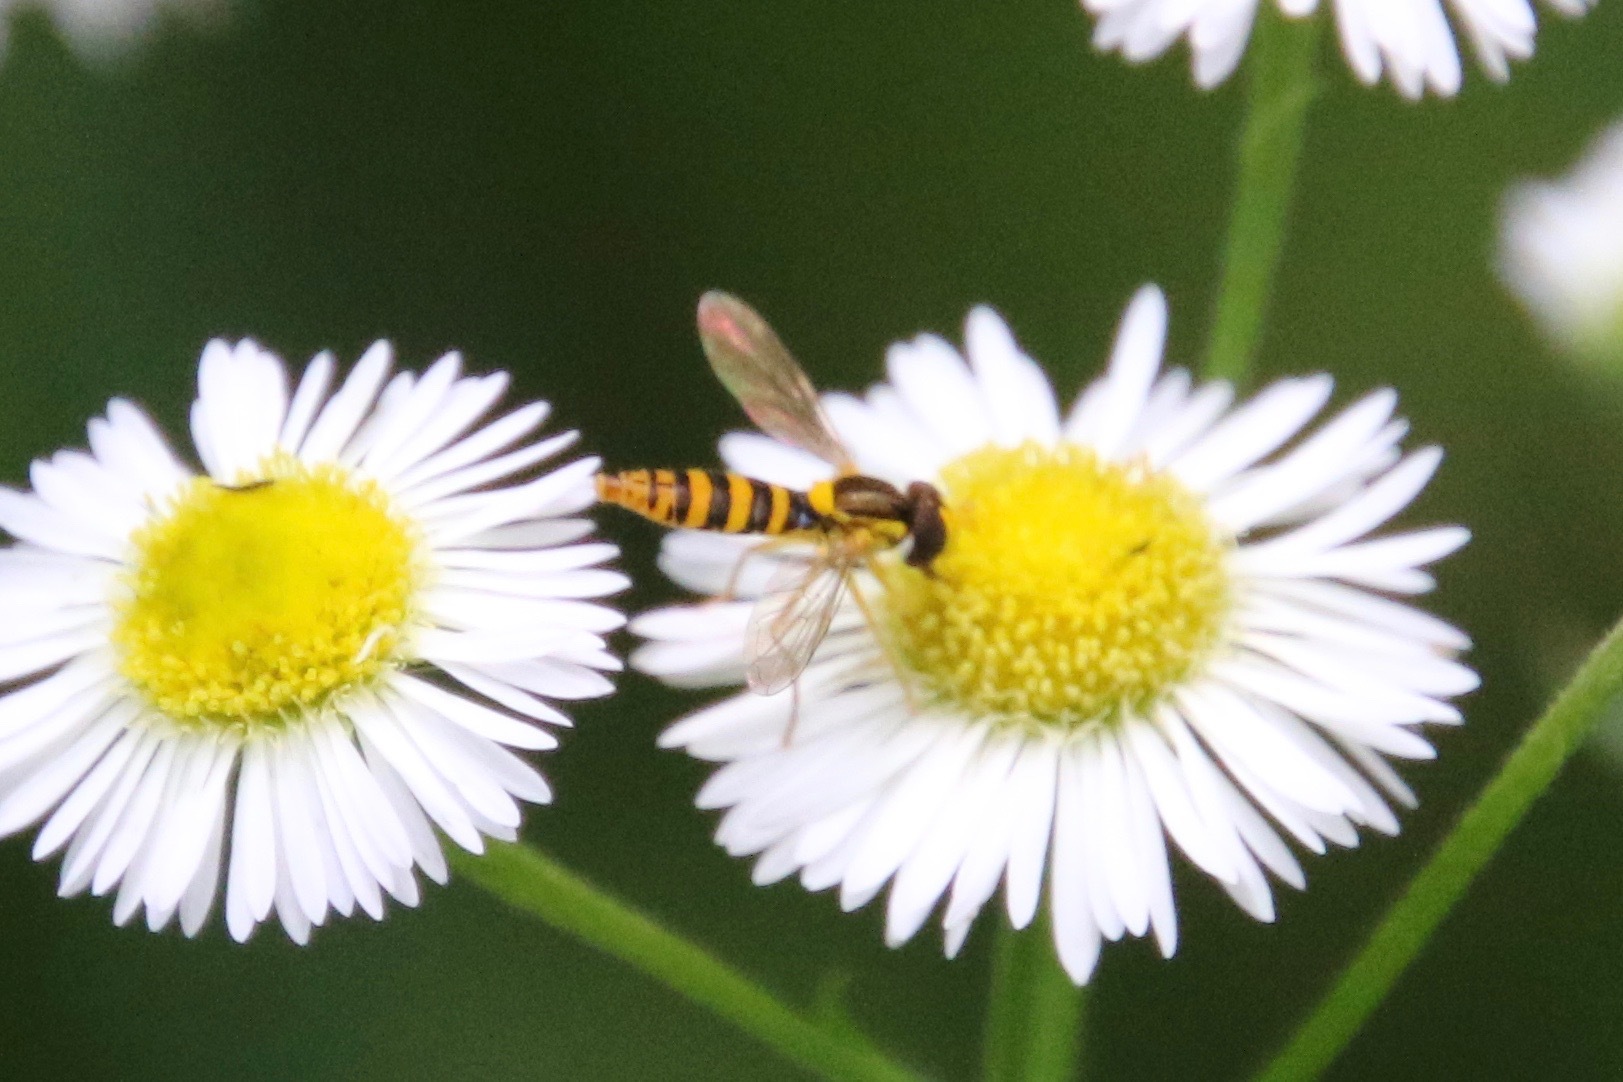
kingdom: Animalia
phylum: Arthropoda
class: Insecta
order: Diptera
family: Syrphidae
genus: Sphaerophoria
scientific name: Sphaerophoria
